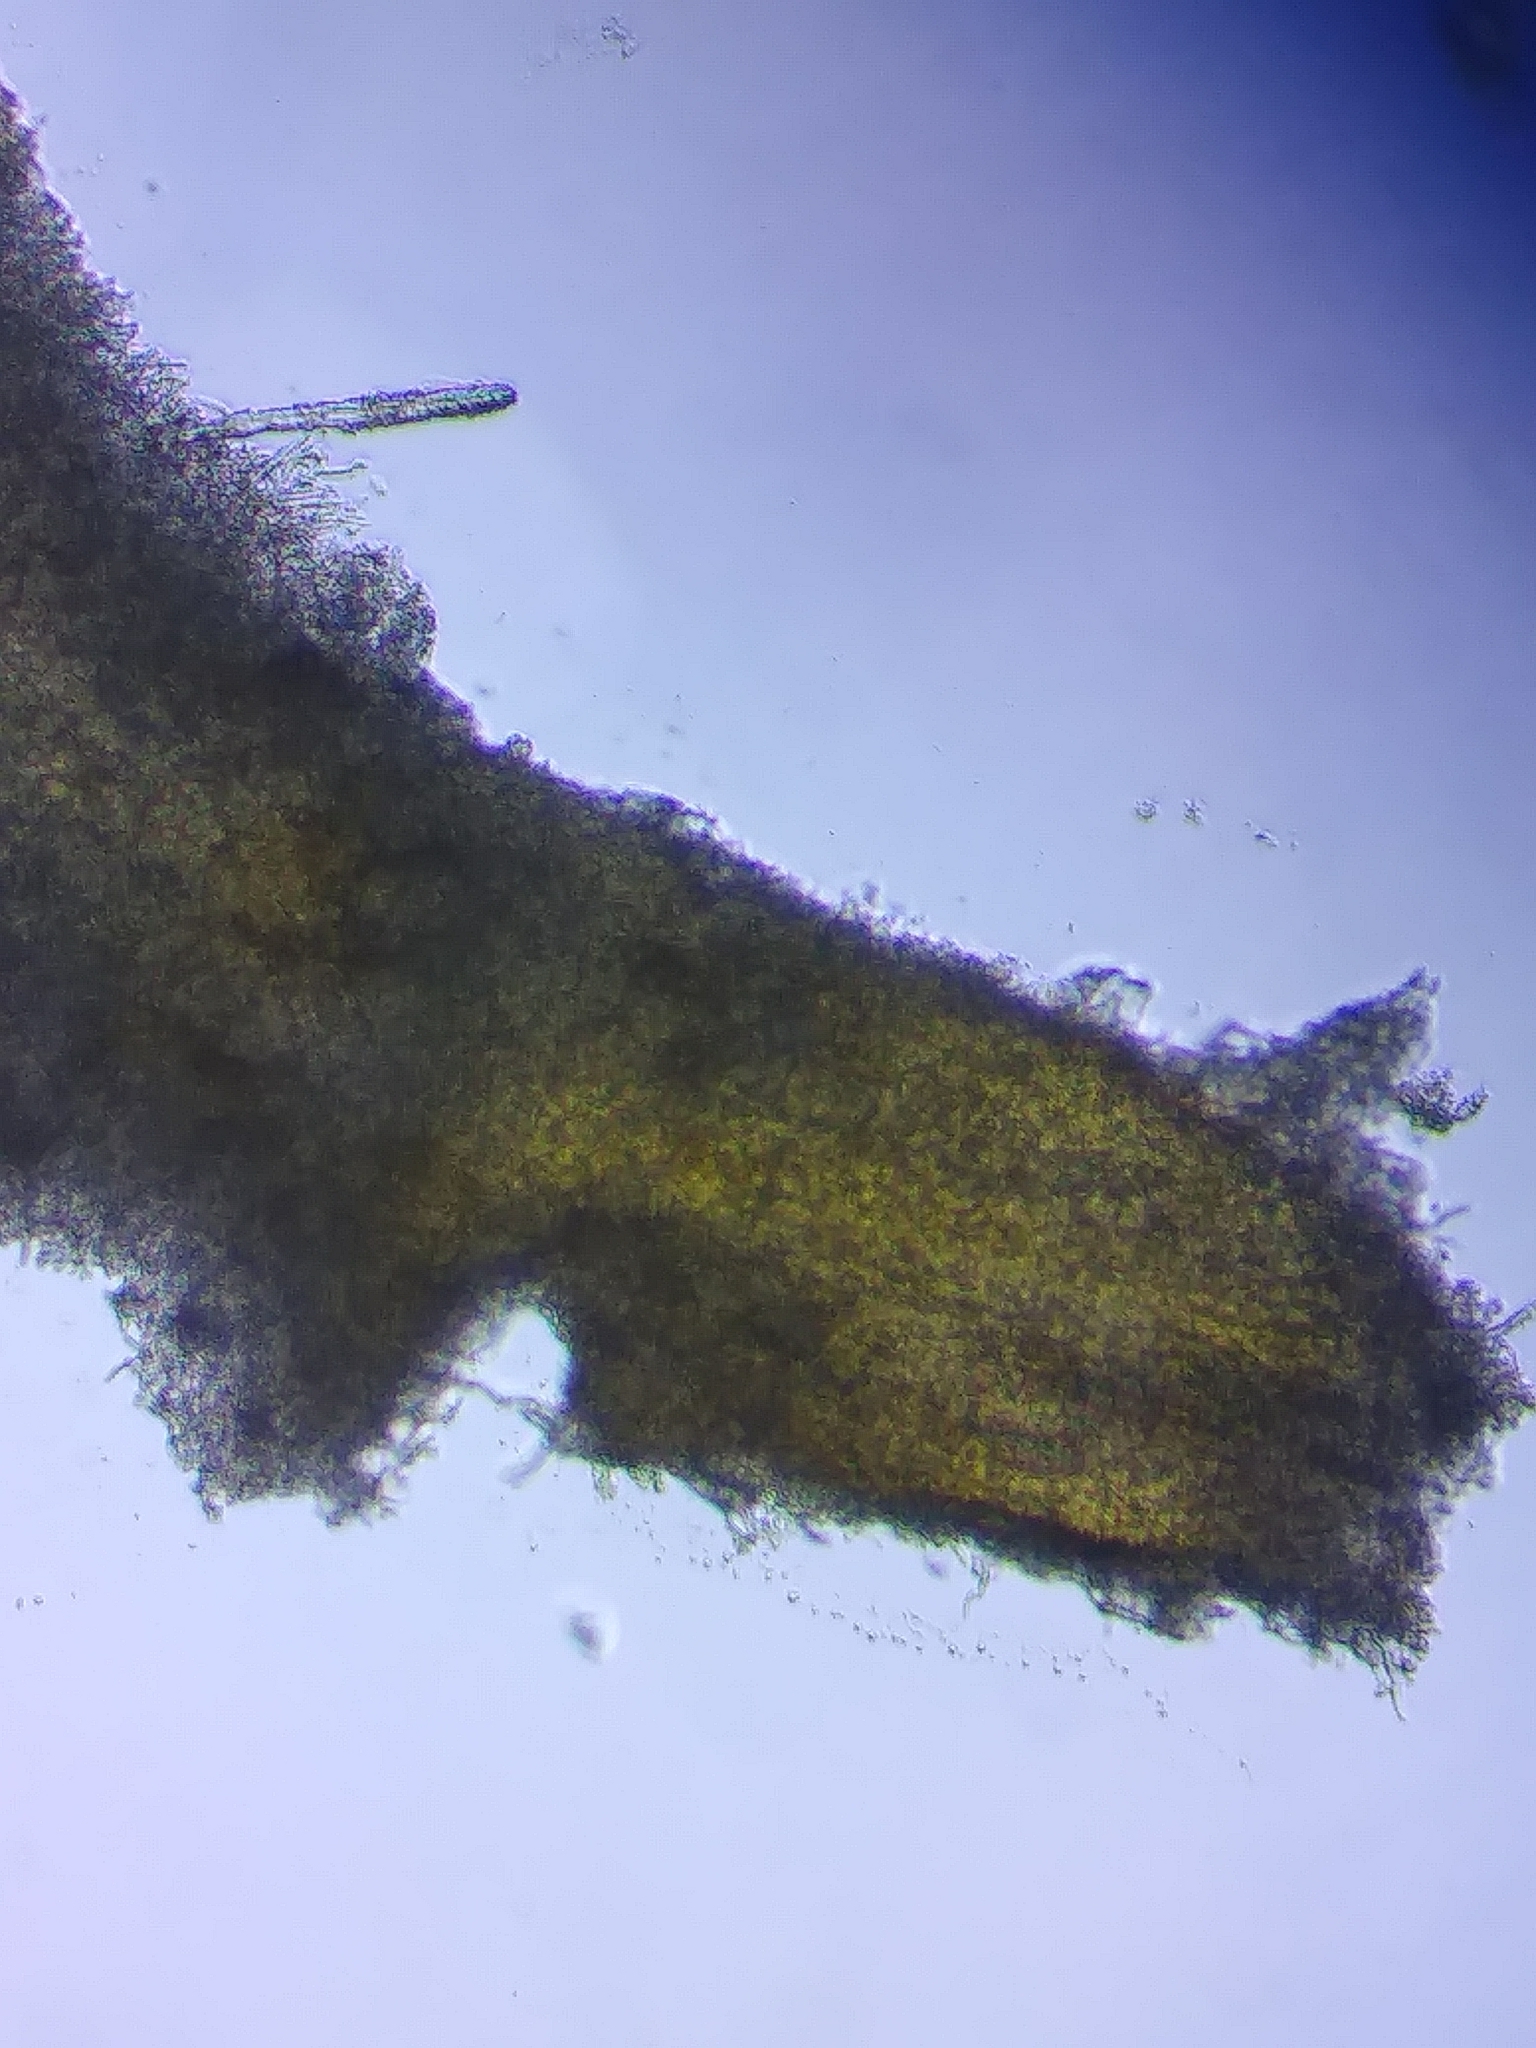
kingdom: Fungi
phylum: Basidiomycota
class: Agaricomycetes
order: Polyporales
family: Steccherinaceae
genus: Junghuhnia
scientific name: Junghuhnia nitida
